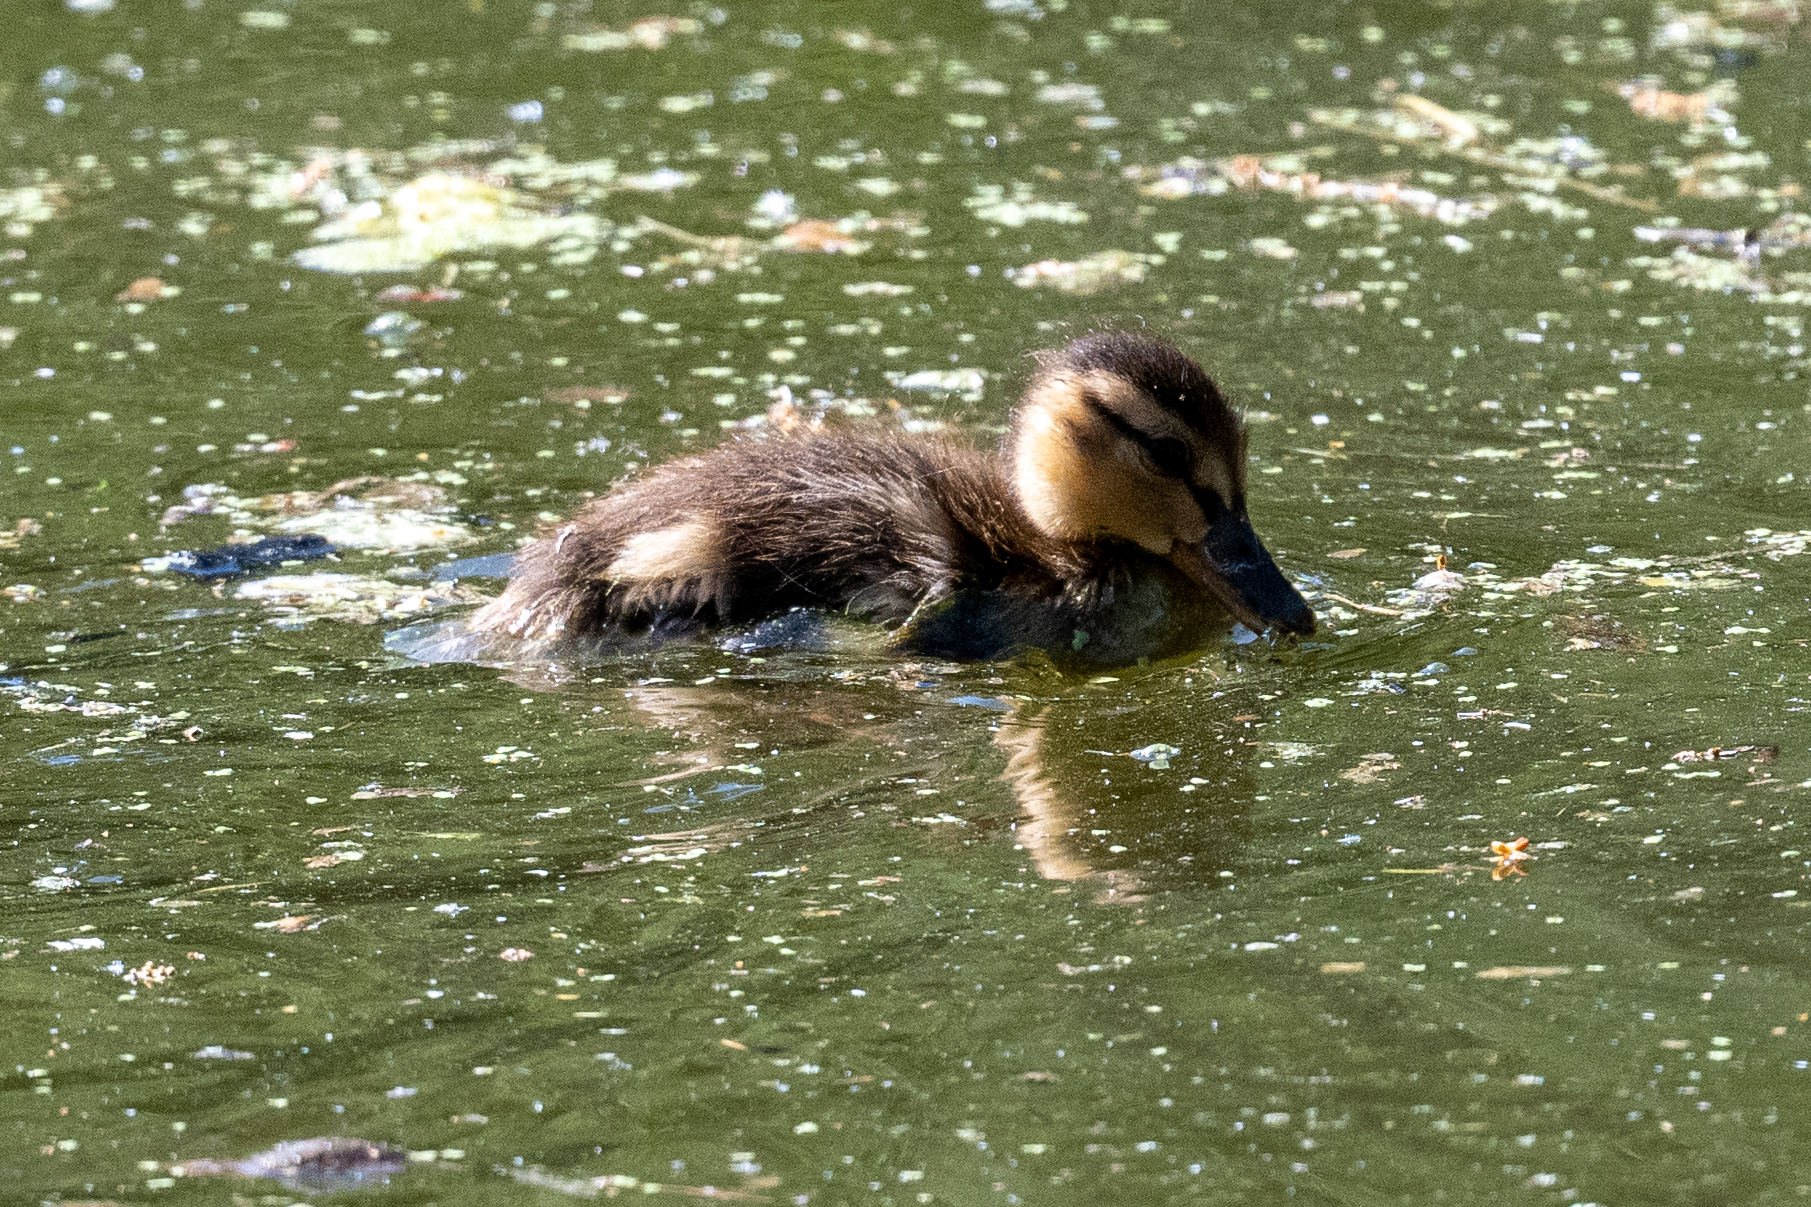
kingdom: Animalia
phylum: Chordata
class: Aves
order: Anseriformes
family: Anatidae
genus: Anas
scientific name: Anas platyrhynchos
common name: Mallard
